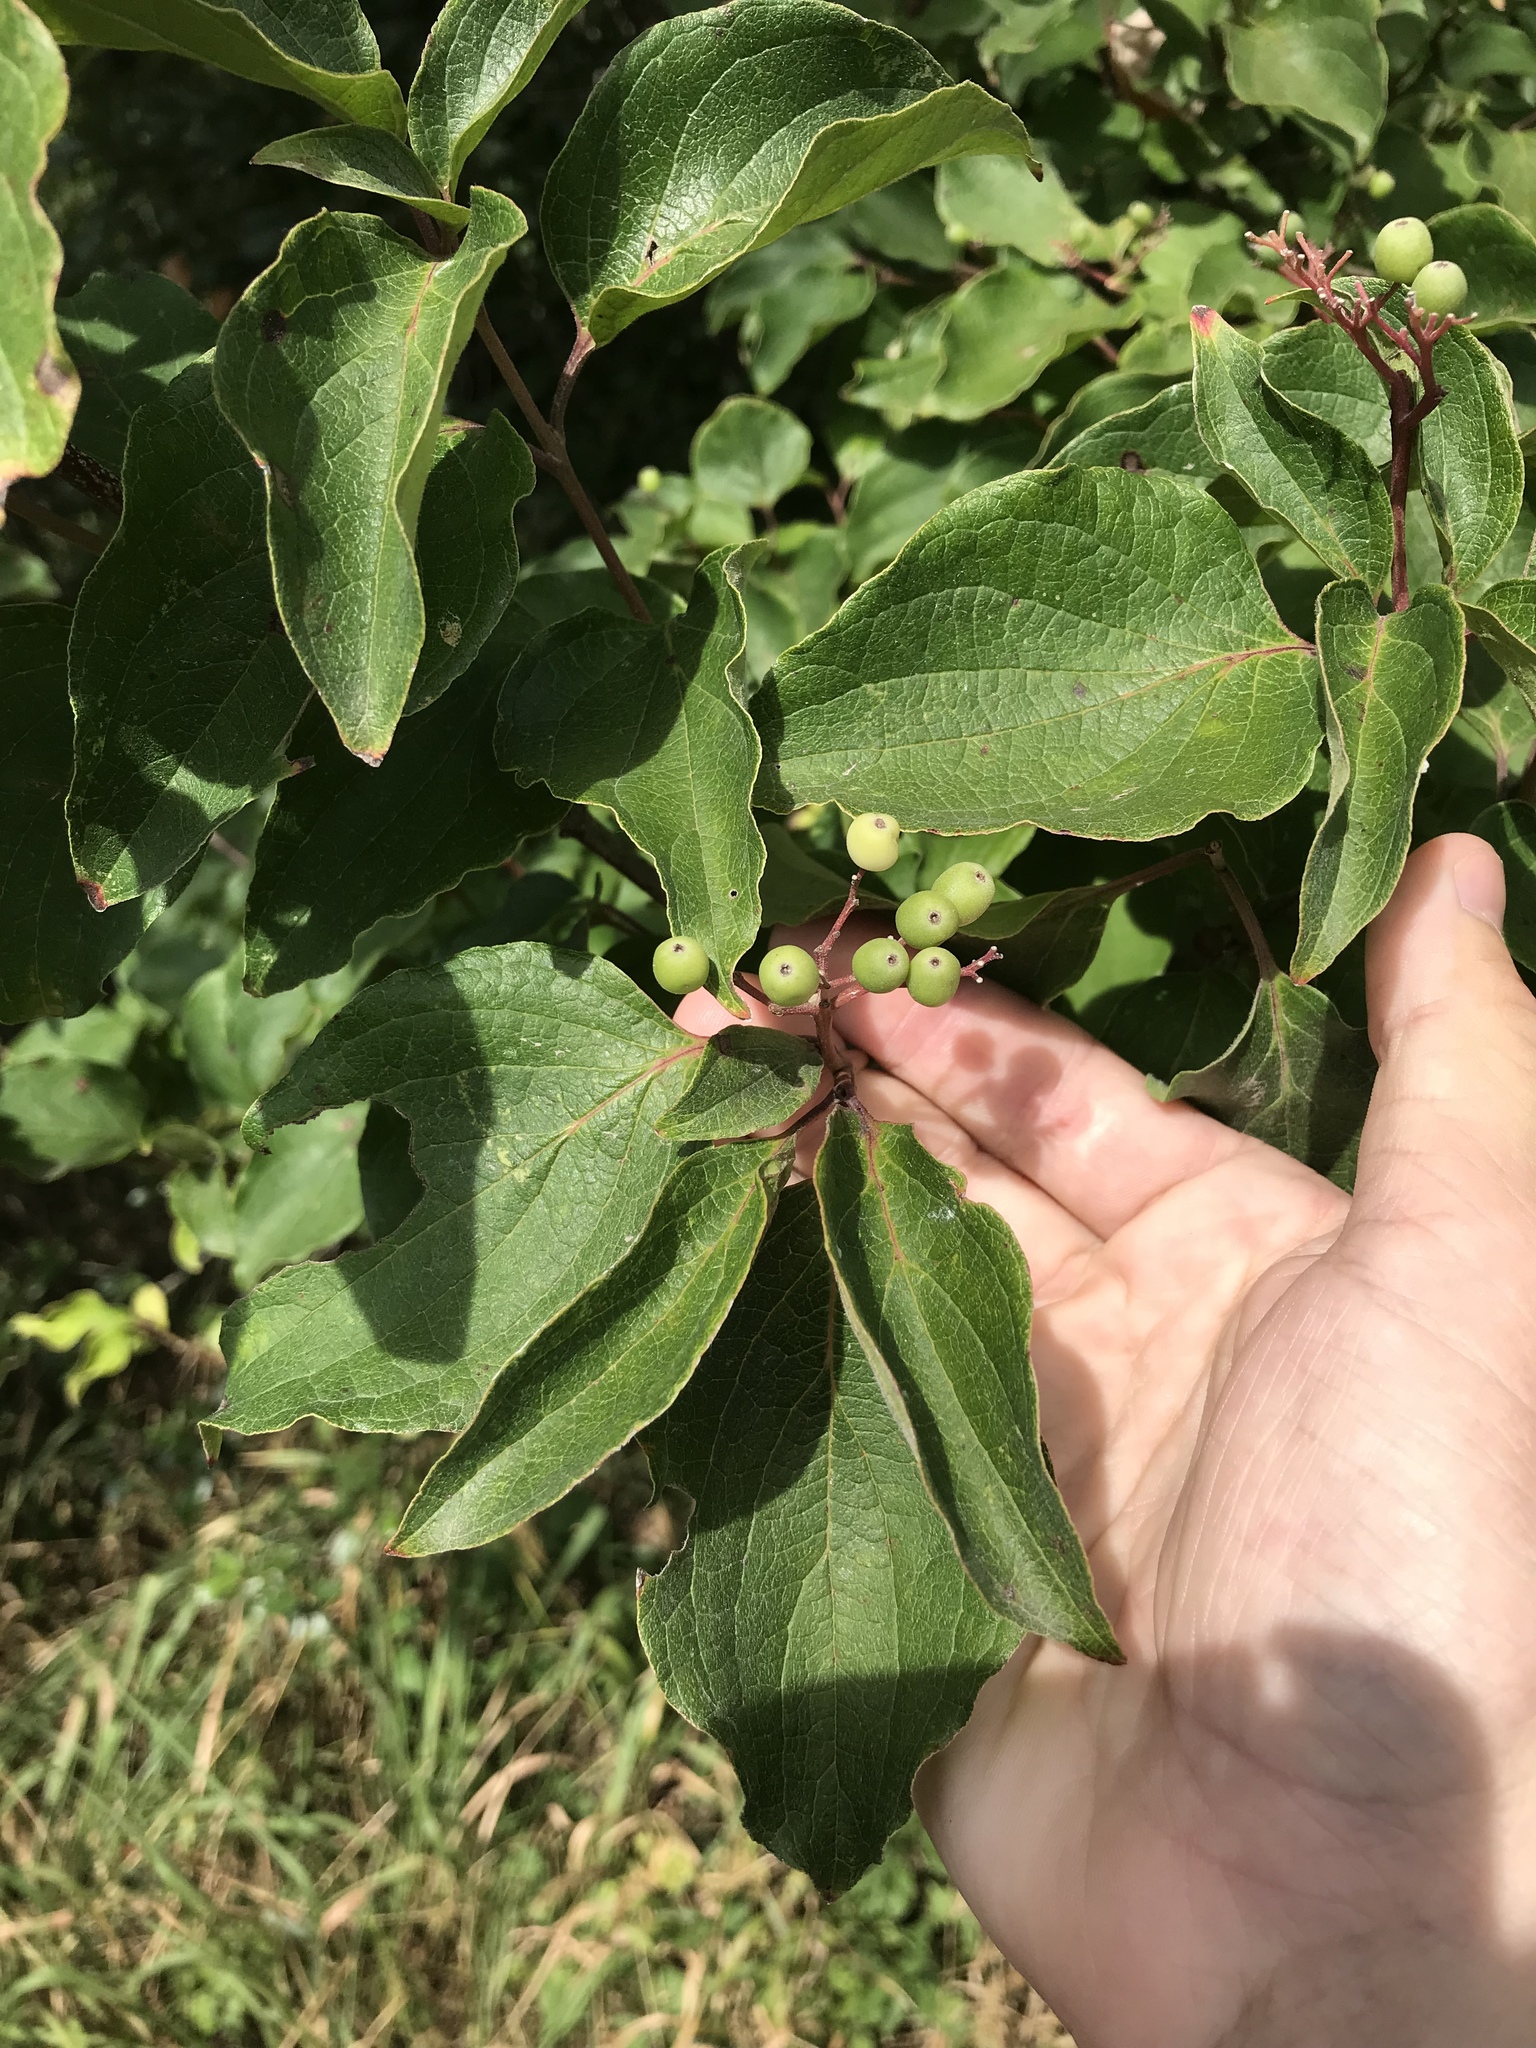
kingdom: Plantae
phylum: Tracheophyta
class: Magnoliopsida
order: Cornales
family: Cornaceae
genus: Cornus
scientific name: Cornus drummondii
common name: Rough-leaf dogwood
